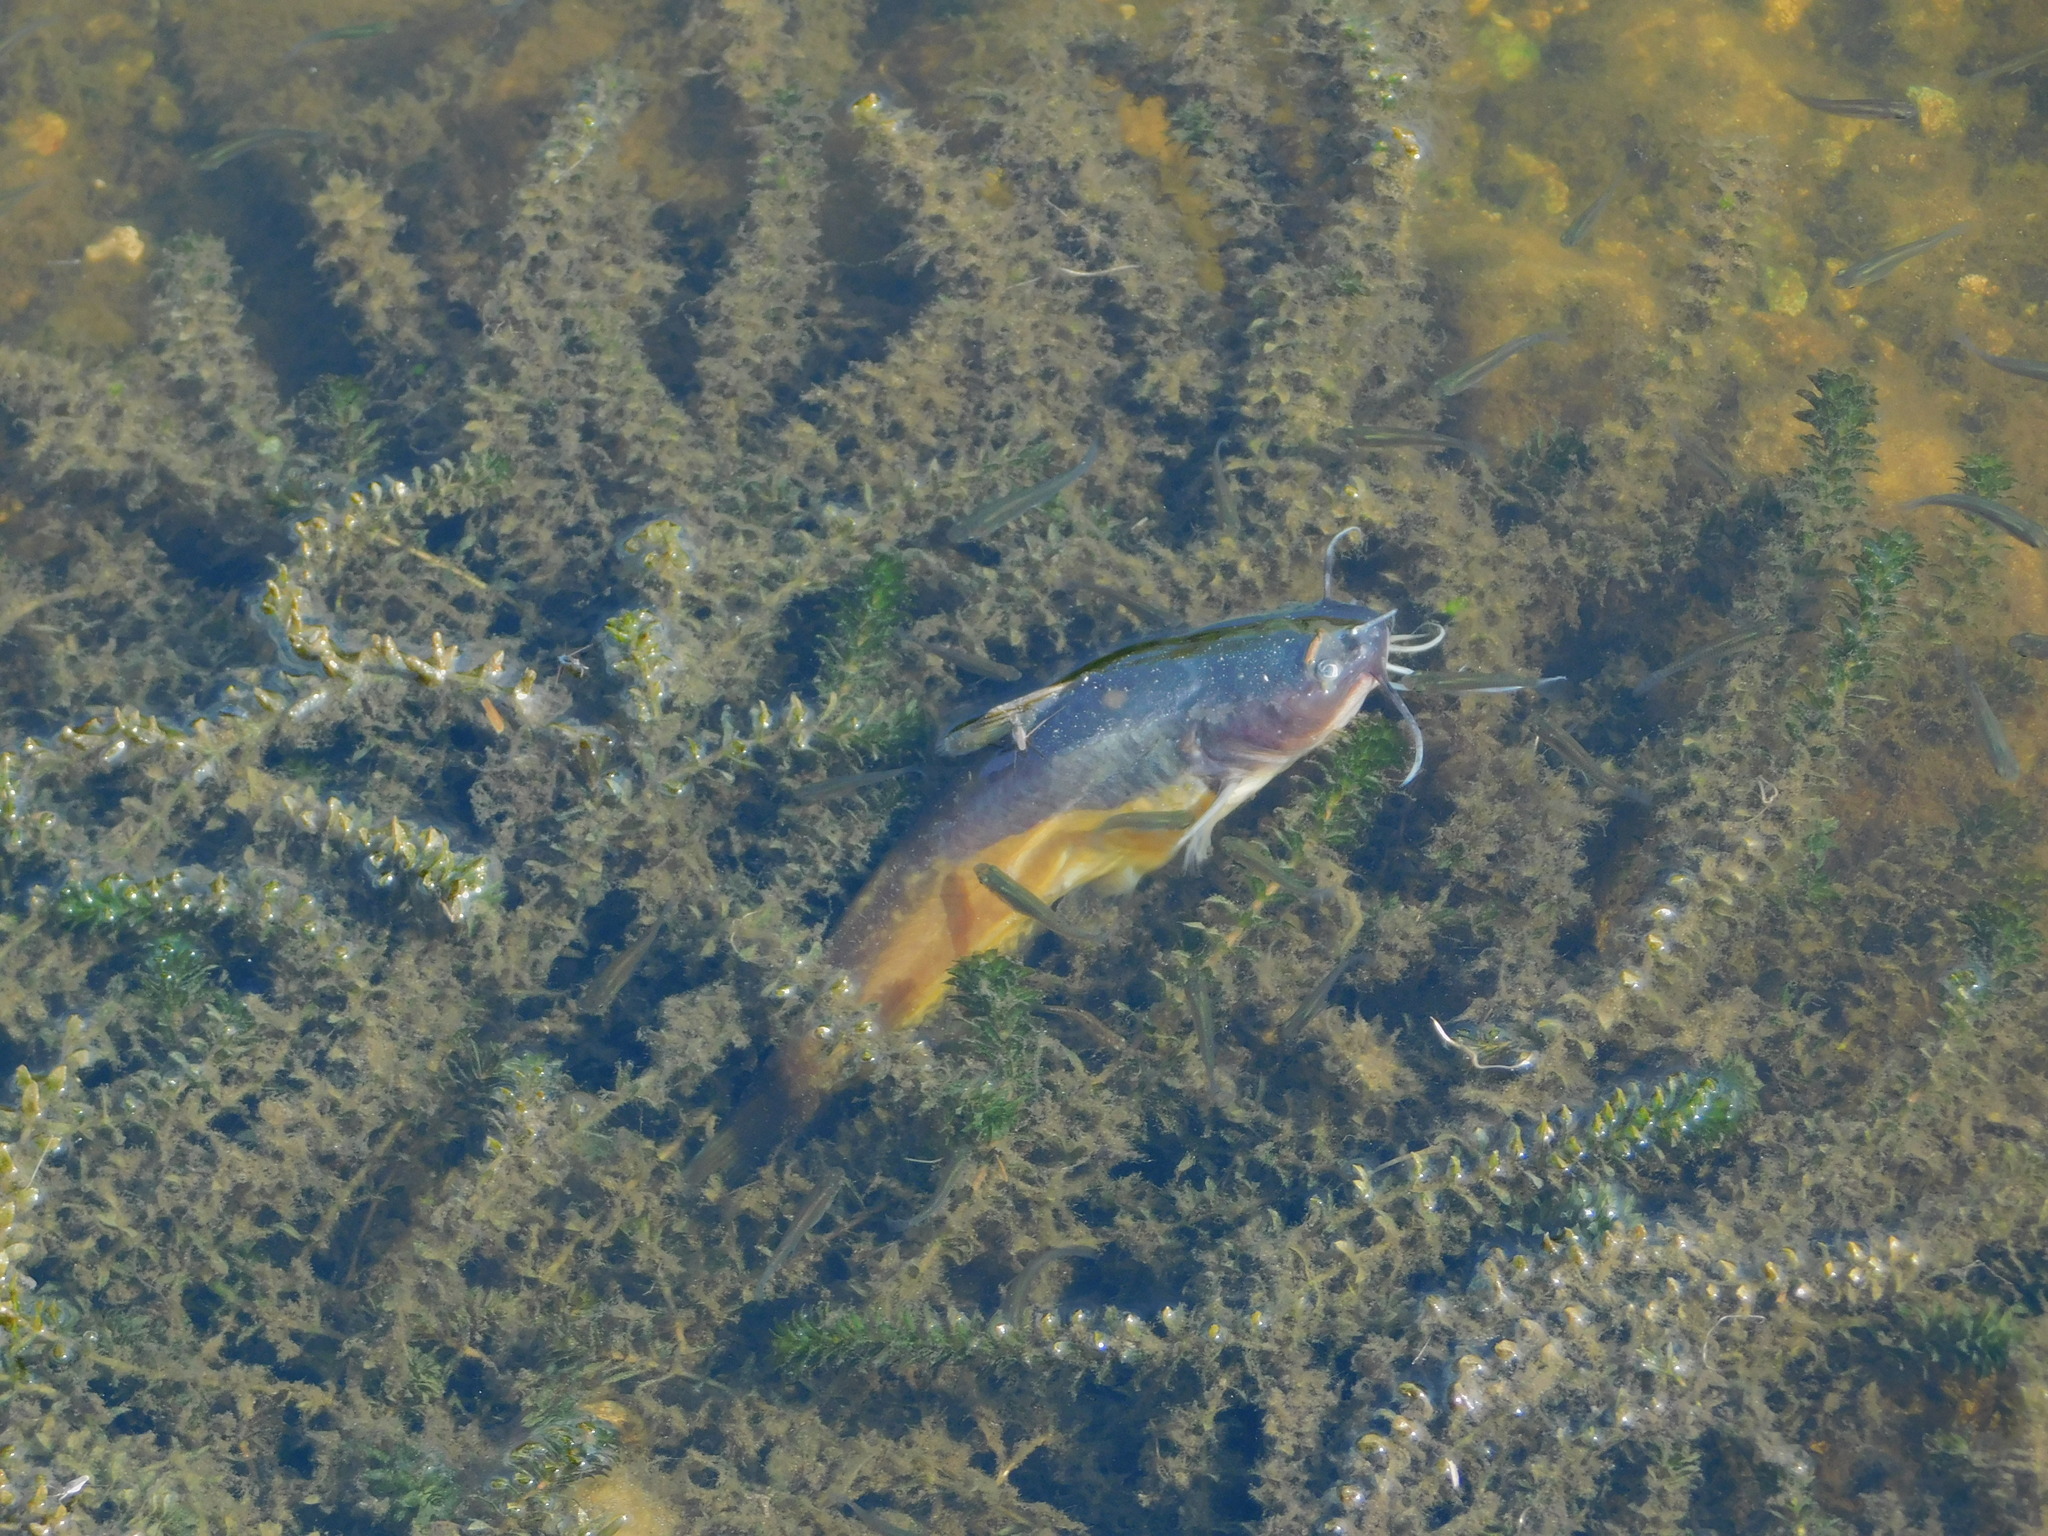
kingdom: Plantae
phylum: Tracheophyta
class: Liliopsida
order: Alismatales
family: Hydrocharitaceae
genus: Hydrilla
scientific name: Hydrilla verticillata
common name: Florida-elodea
